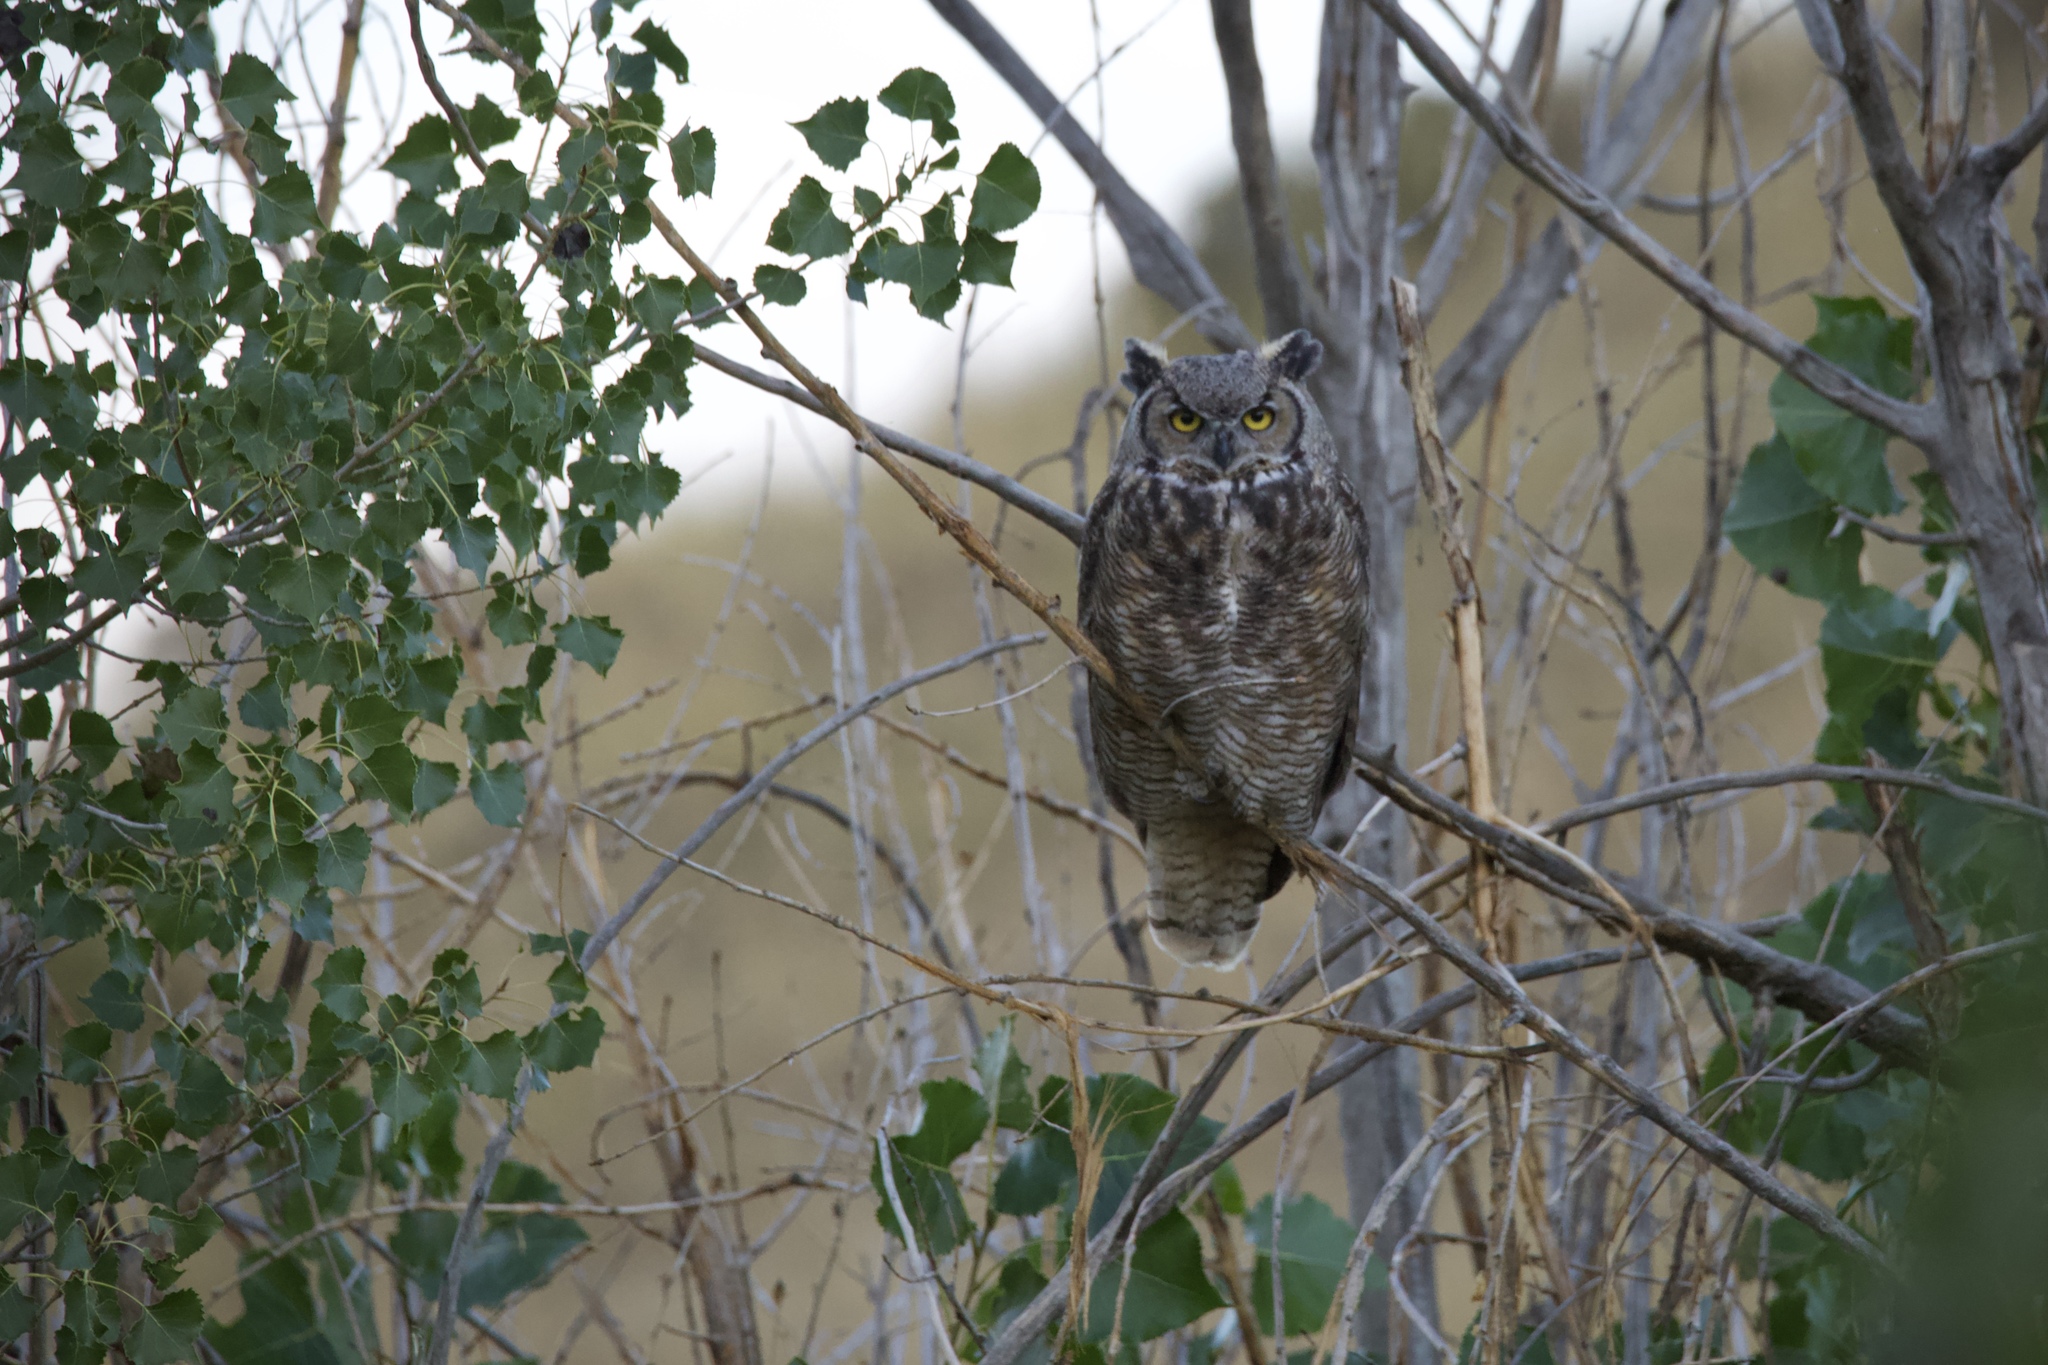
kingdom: Animalia
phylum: Chordata
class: Aves
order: Strigiformes
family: Strigidae
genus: Bubo
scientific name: Bubo virginianus
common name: Great horned owl
